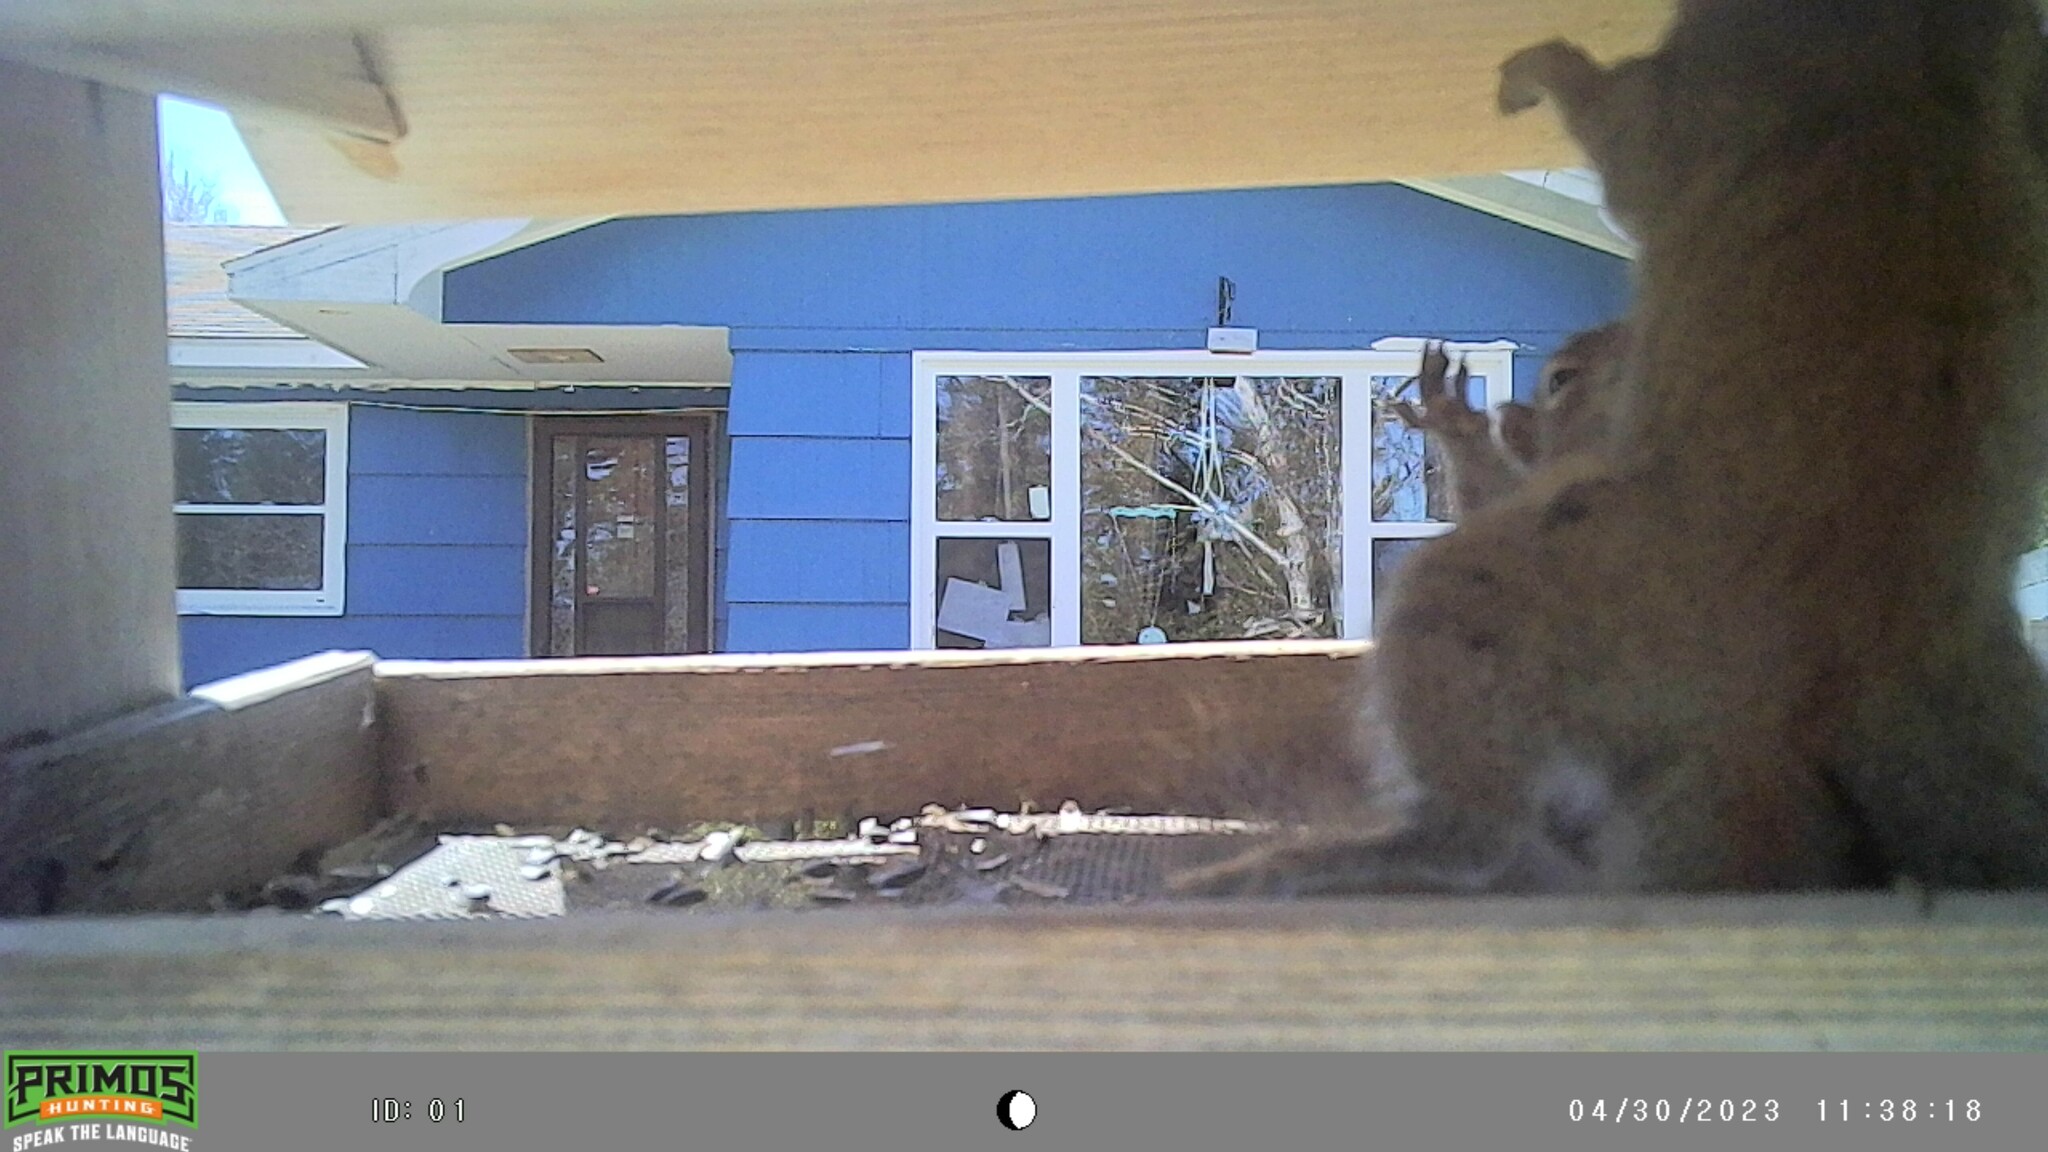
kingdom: Animalia
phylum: Chordata
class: Mammalia
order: Rodentia
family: Sciuridae
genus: Tamiasciurus
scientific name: Tamiasciurus hudsonicus
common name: Red squirrel
